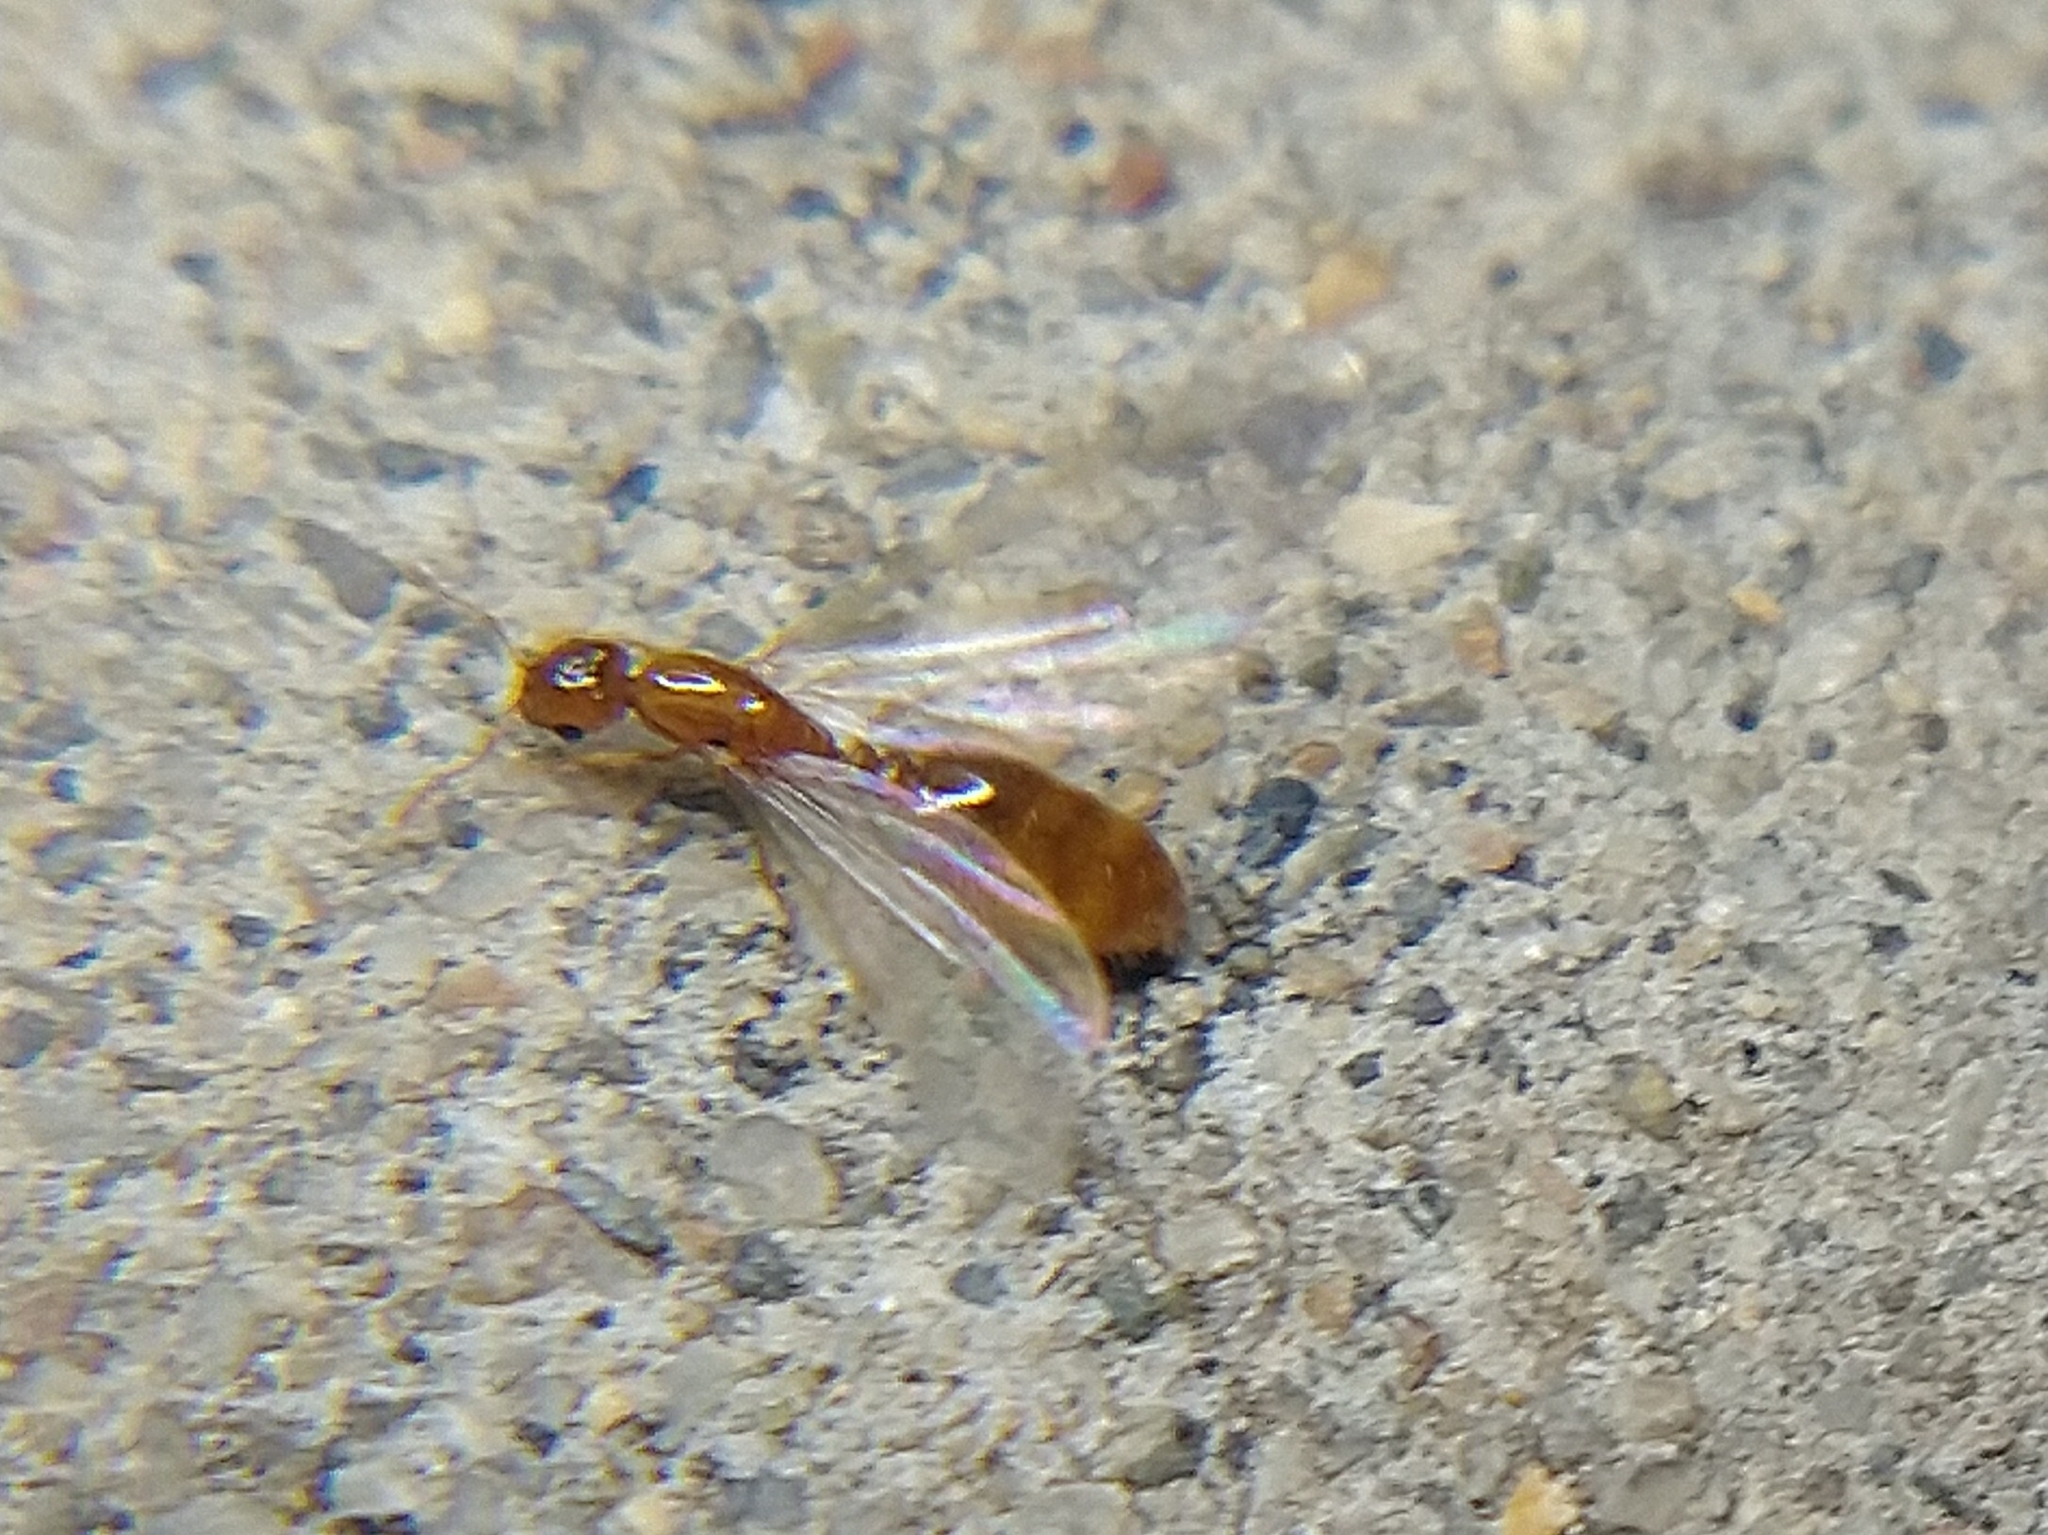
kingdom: Animalia
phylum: Arthropoda
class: Insecta
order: Hymenoptera
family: Formicidae
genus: Solenopsis
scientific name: Solenopsis
